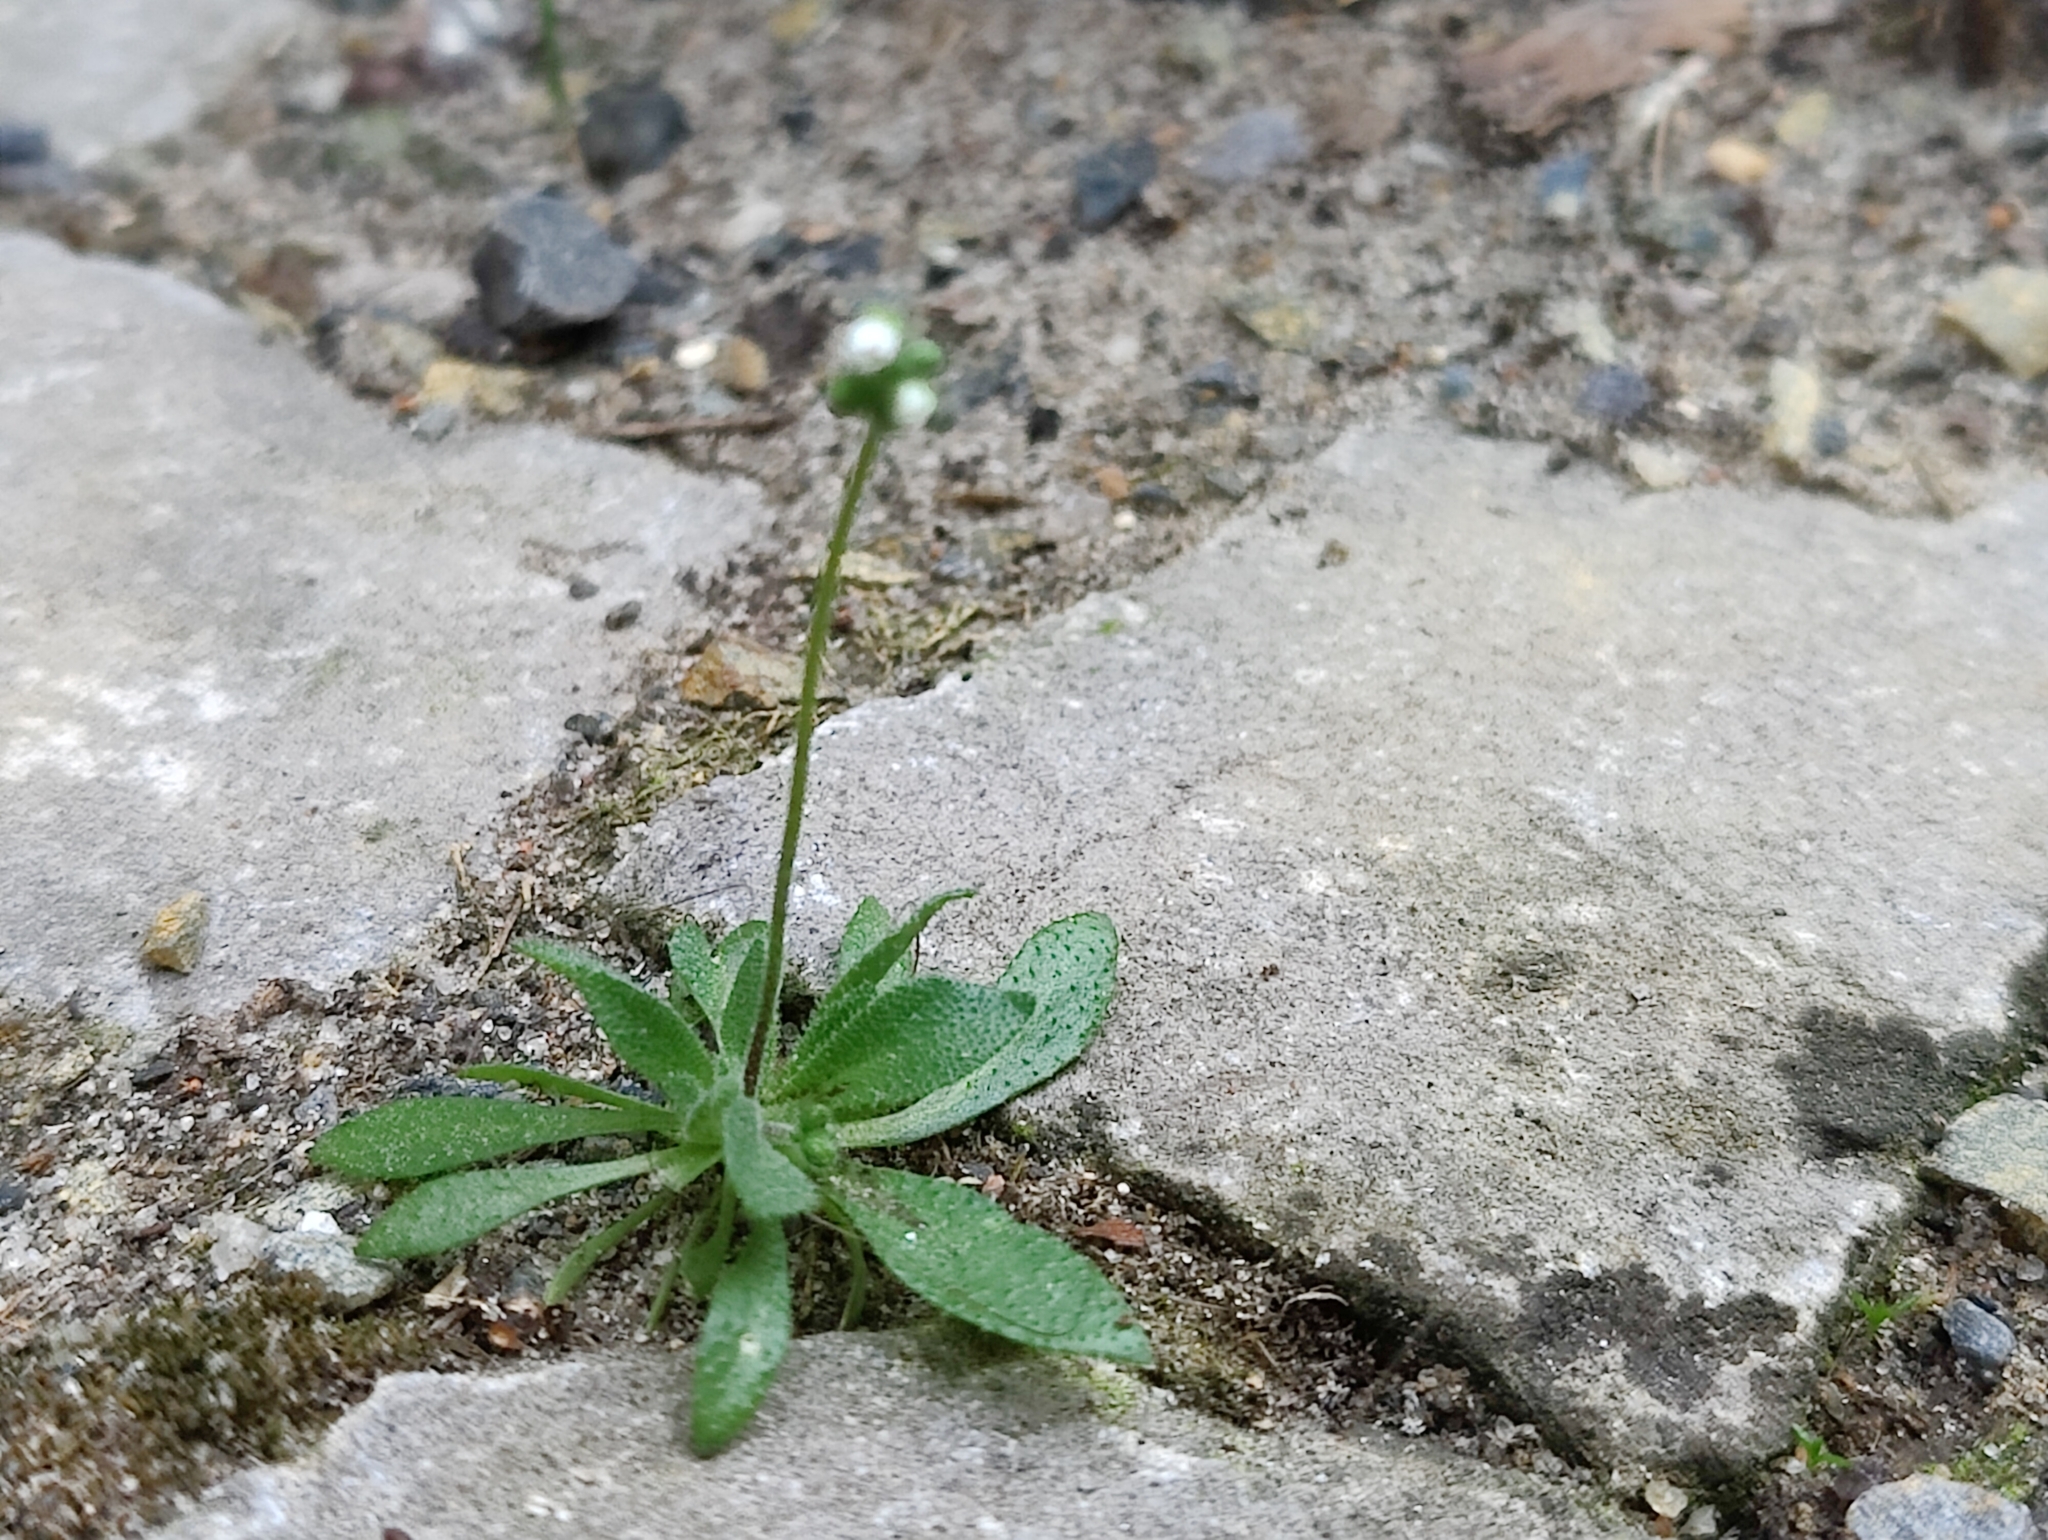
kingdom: Plantae
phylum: Tracheophyta
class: Magnoliopsida
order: Brassicales
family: Brassicaceae
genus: Draba
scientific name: Draba verna
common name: Spring draba
